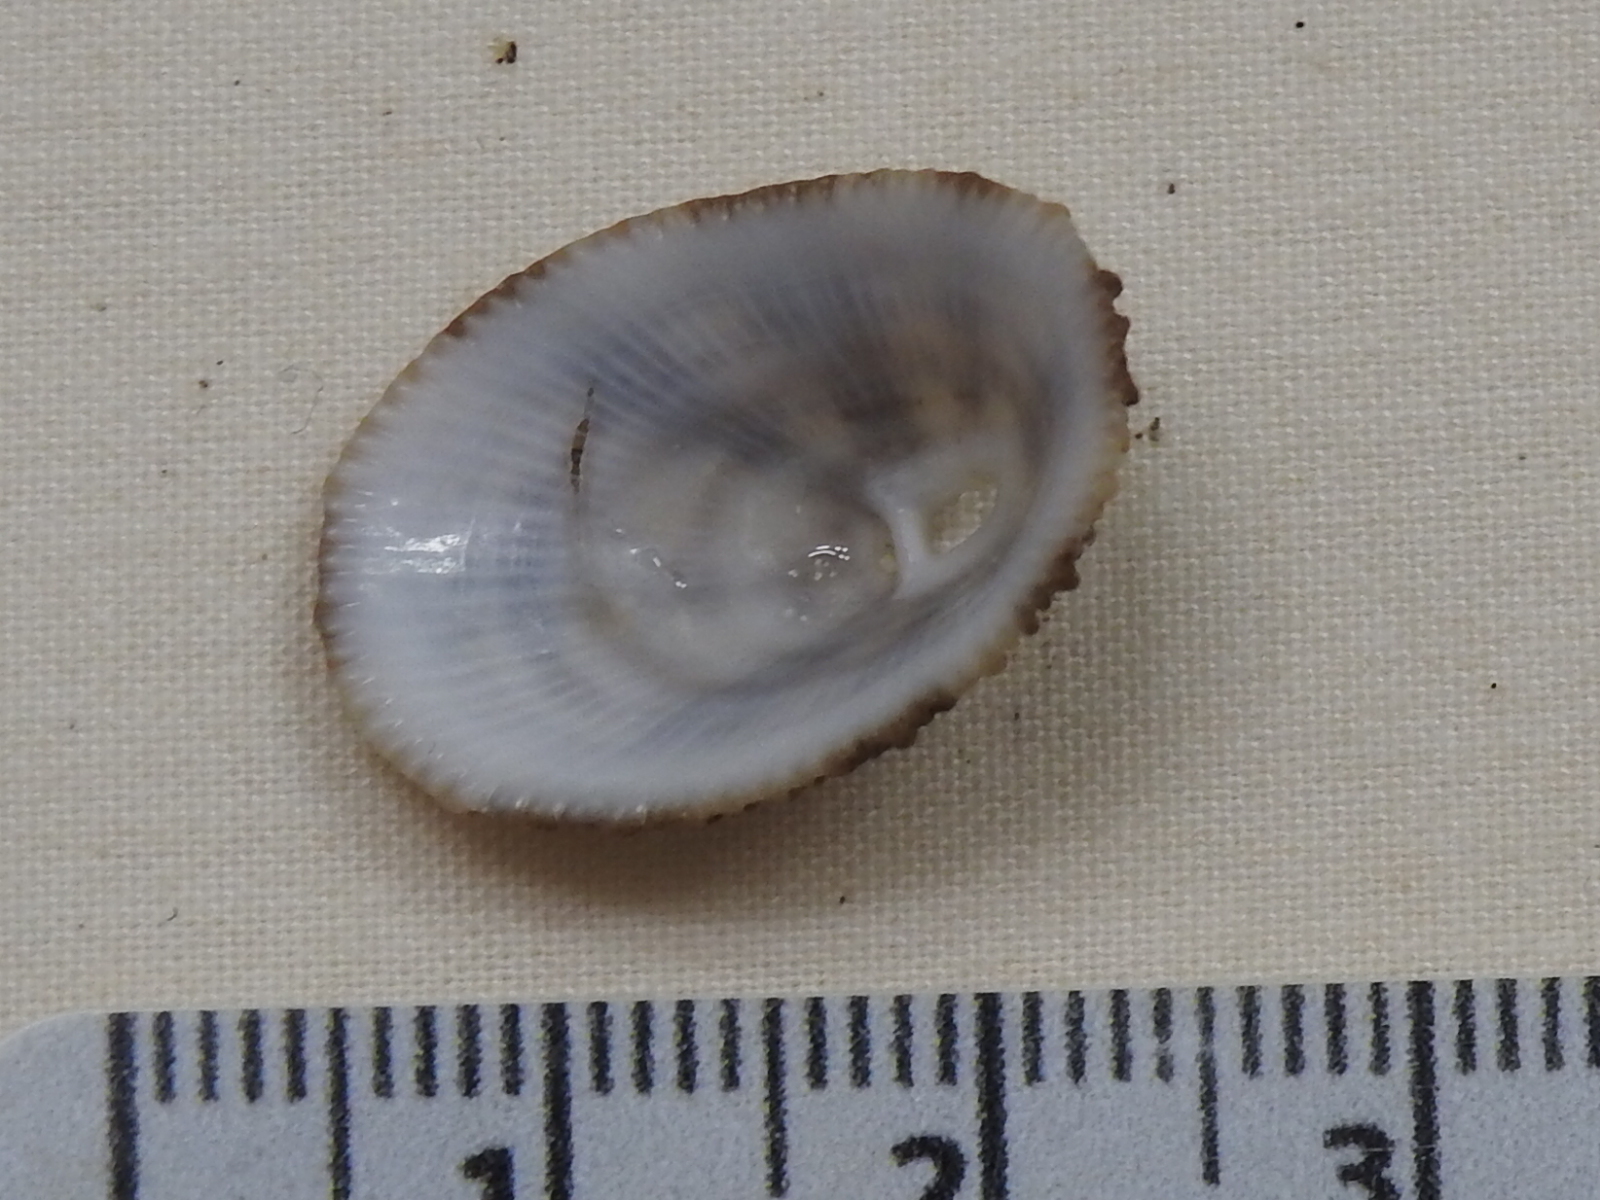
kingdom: Animalia
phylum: Mollusca
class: Gastropoda
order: Lepetellida
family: Fissurellidae
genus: Diodora
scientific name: Diodora cayenensis
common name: Cayenne keyhole limpet
